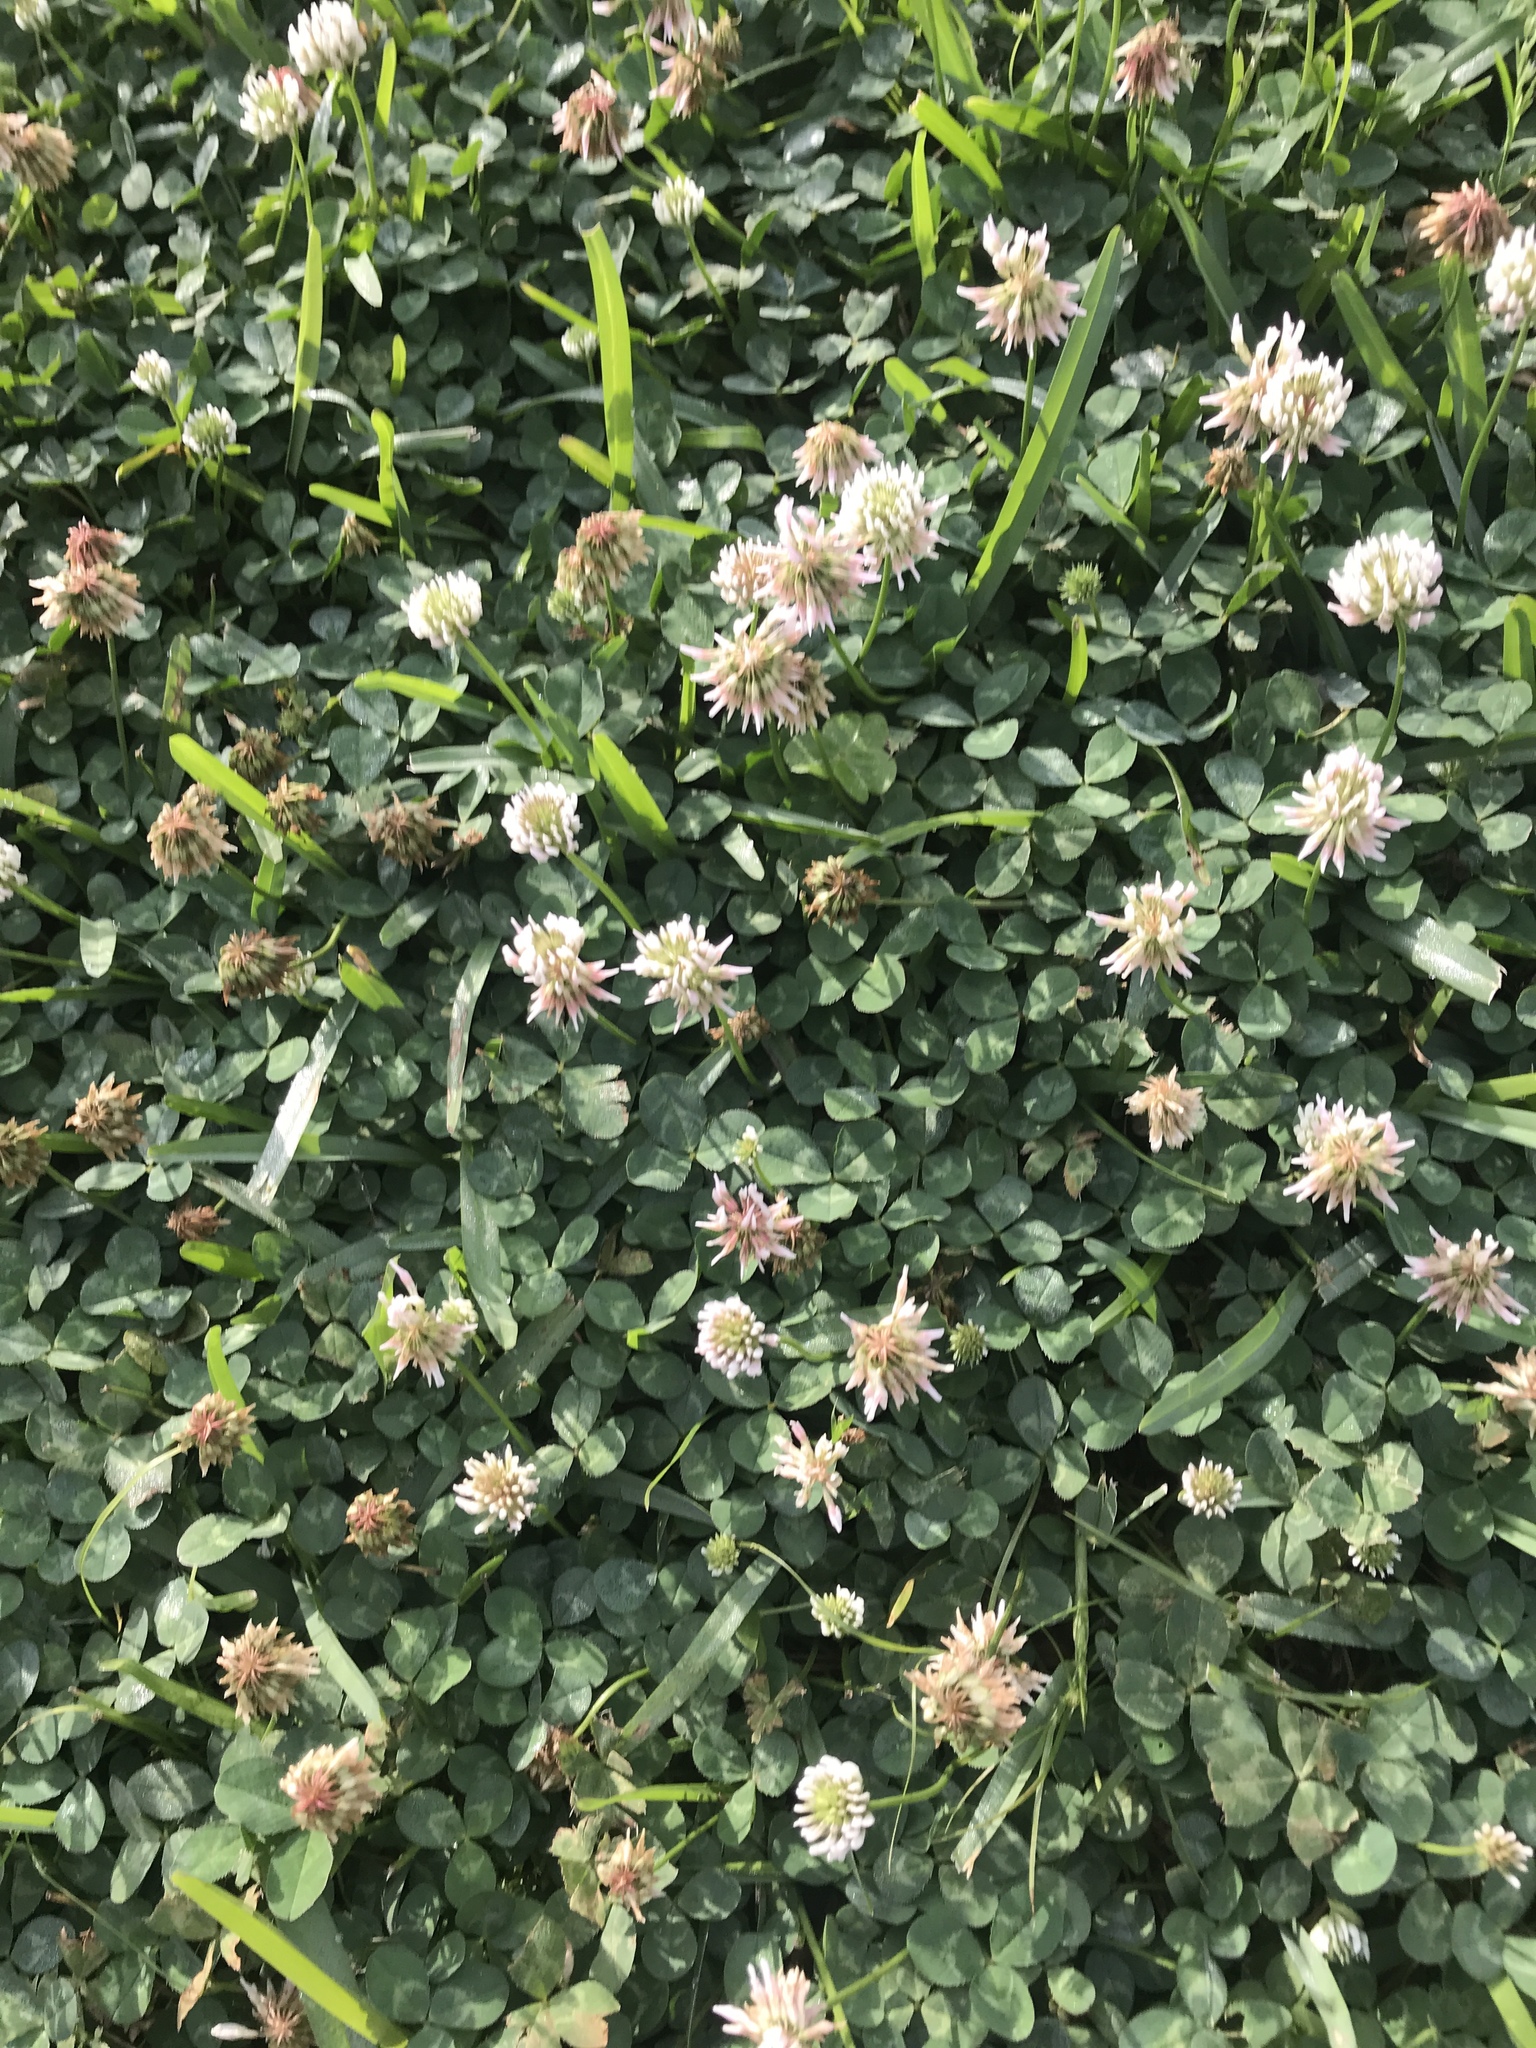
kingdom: Plantae
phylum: Tracheophyta
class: Magnoliopsida
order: Fabales
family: Fabaceae
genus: Trifolium
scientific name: Trifolium repens
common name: White clover
